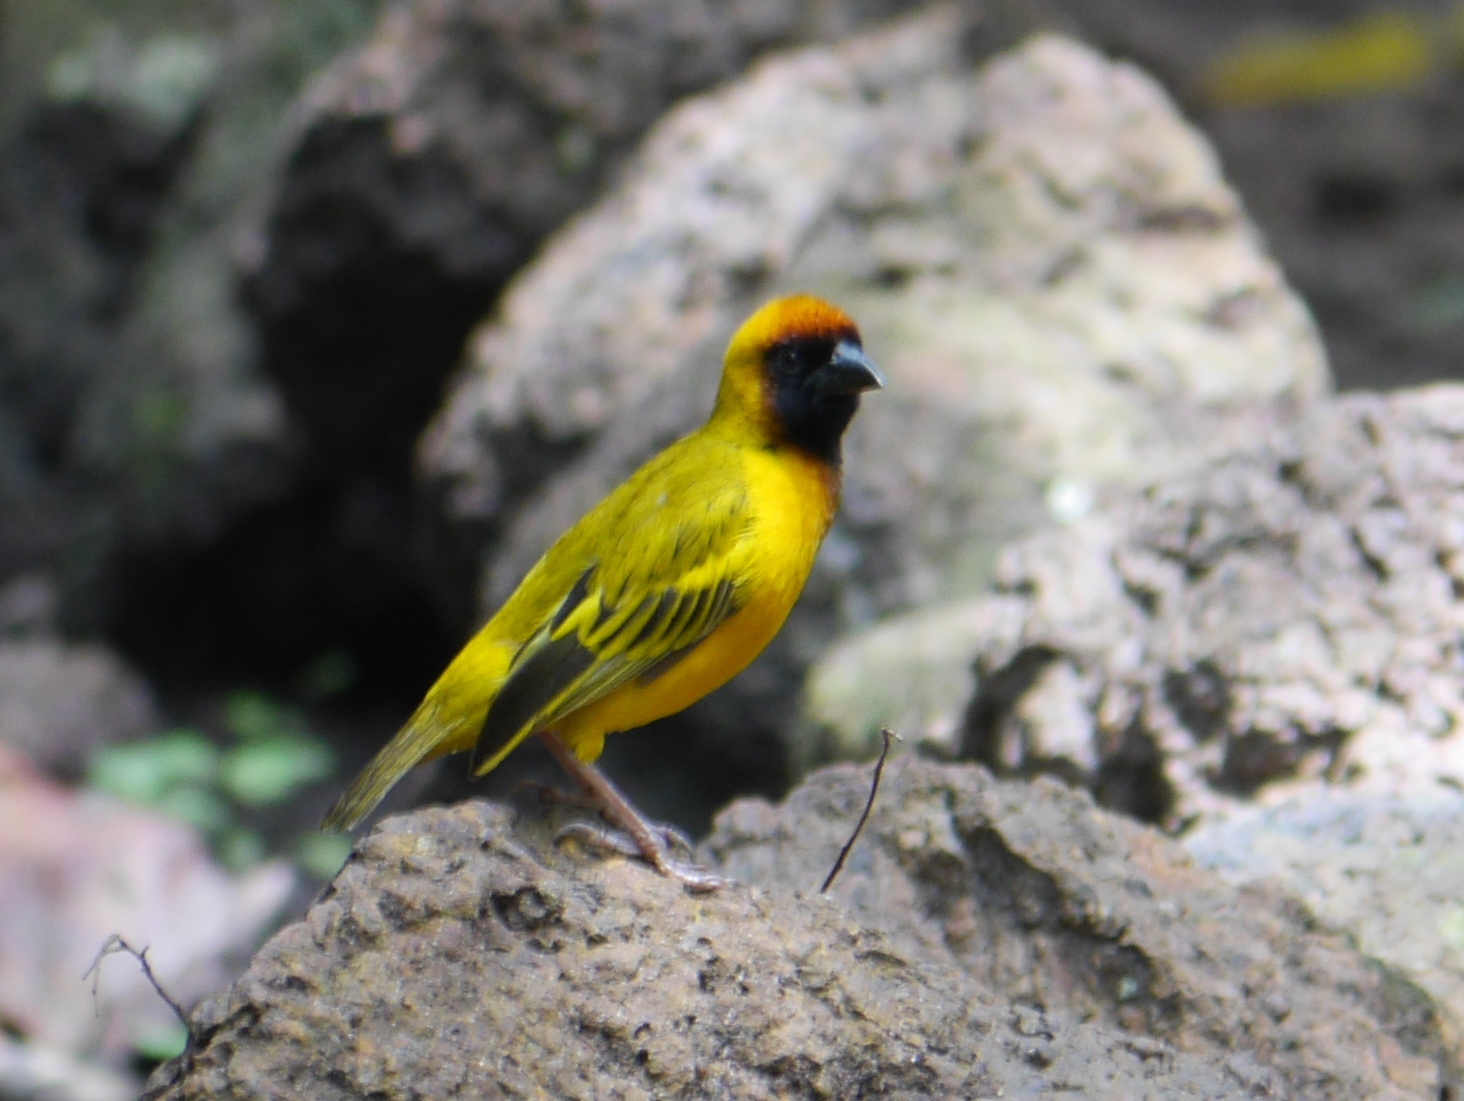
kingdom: Animalia
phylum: Chordata
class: Aves
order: Passeriformes
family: Ploceidae
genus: Ploceus
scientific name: Ploceus taeniopterus
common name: Northern masked weaver
